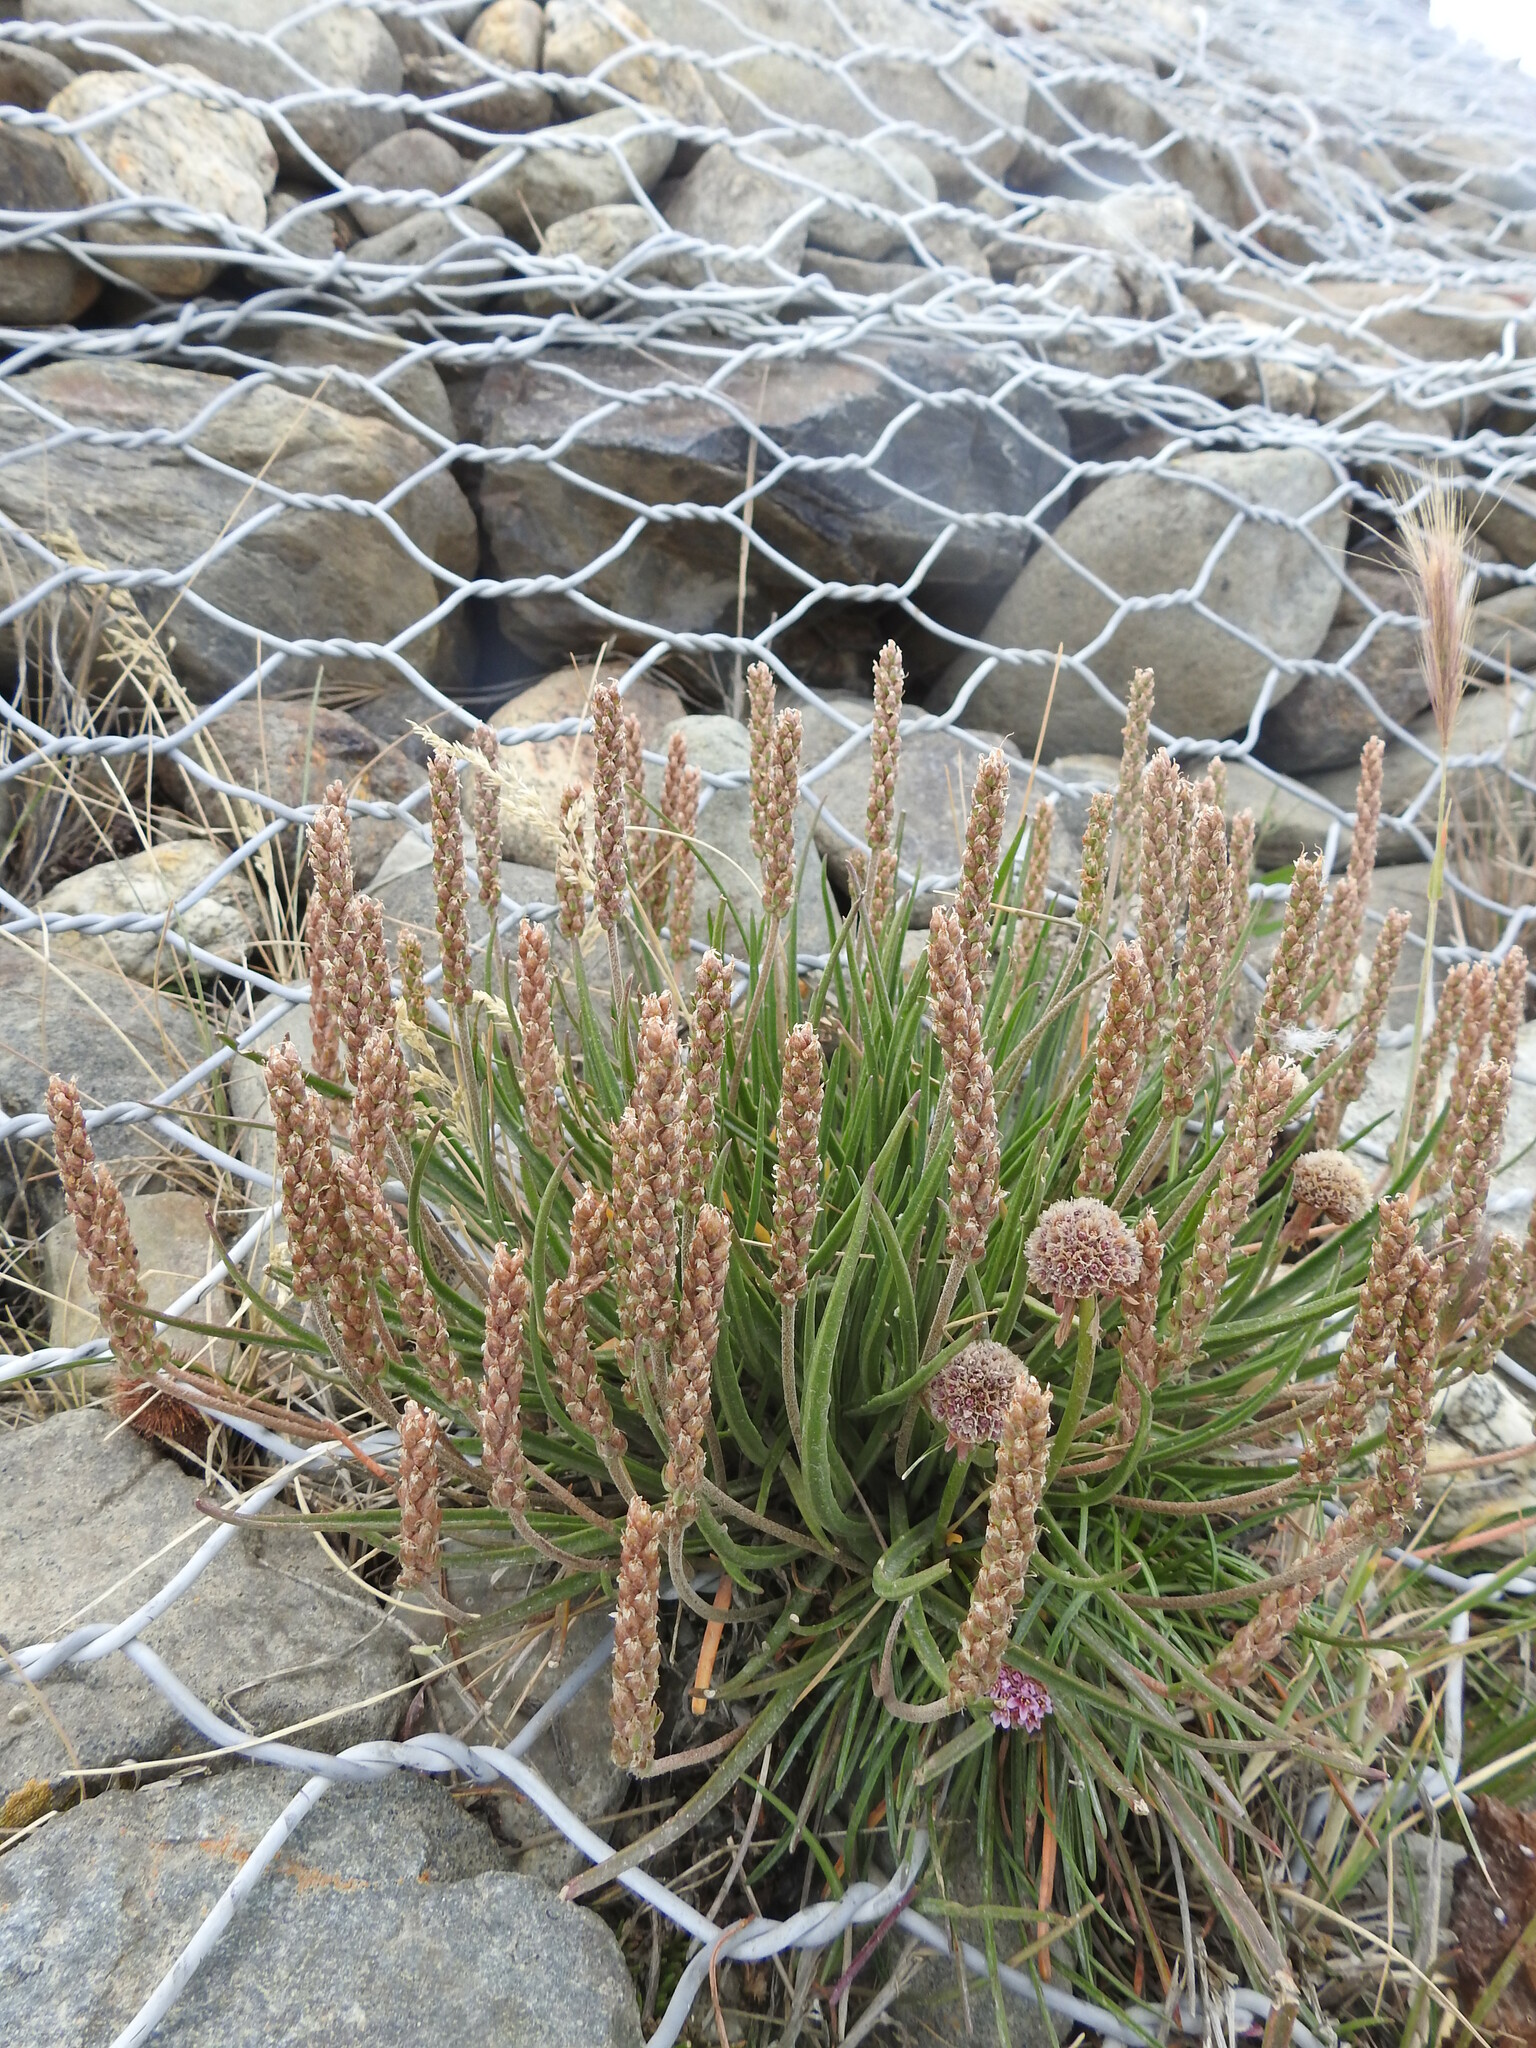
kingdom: Plantae
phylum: Tracheophyta
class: Magnoliopsida
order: Lamiales
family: Plantaginaceae
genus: Plantago
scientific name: Plantago maritima
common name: Sea plantain
